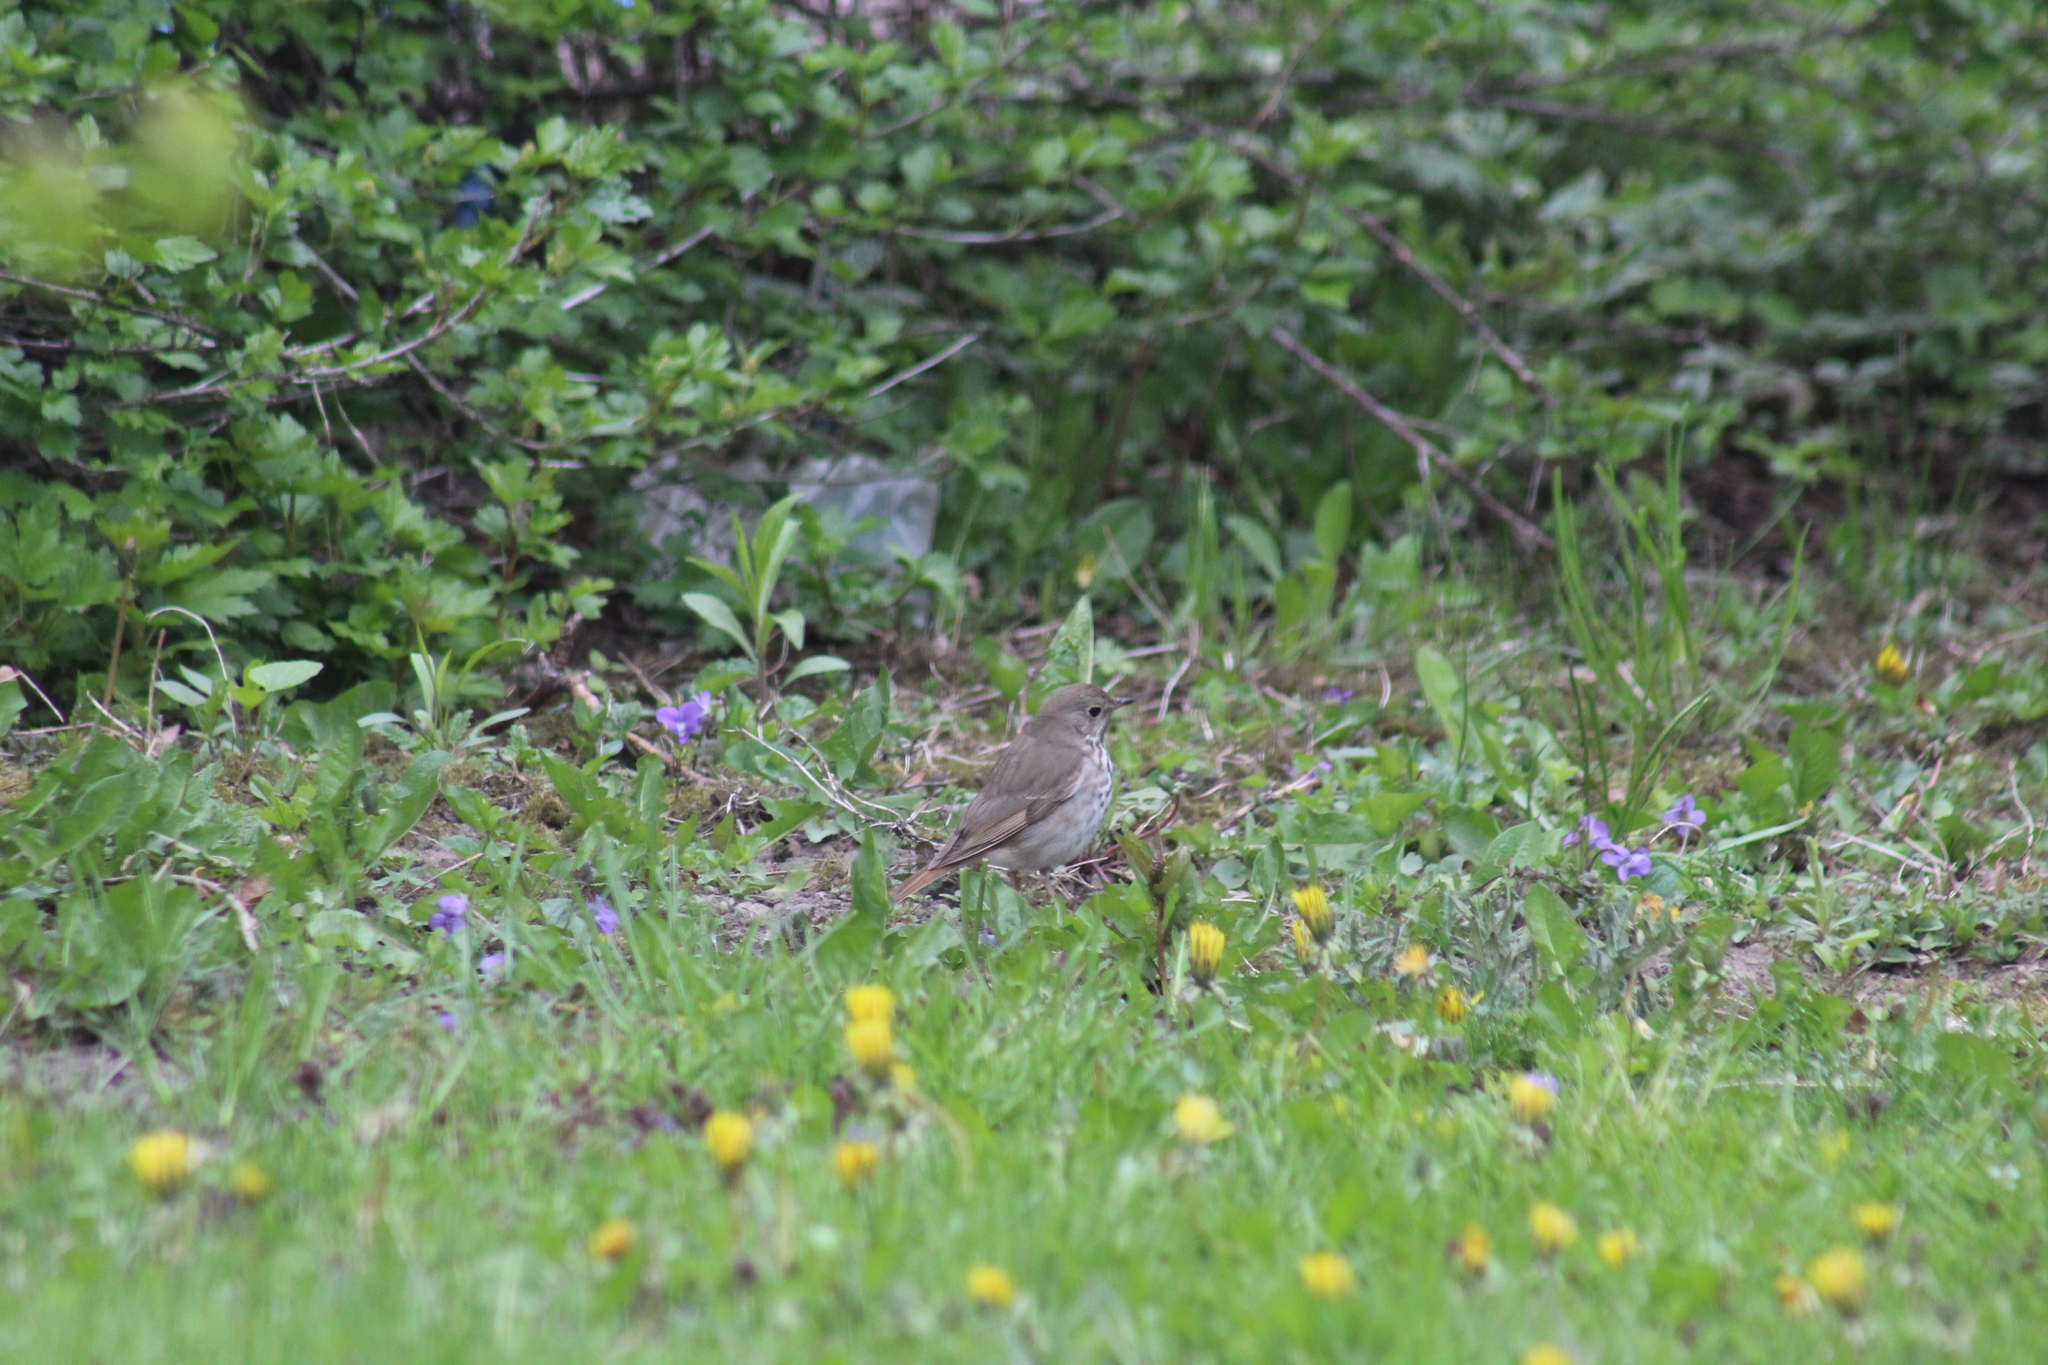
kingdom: Animalia
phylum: Chordata
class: Aves
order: Passeriformes
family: Turdidae
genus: Catharus
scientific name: Catharus guttatus
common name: Hermit thrush
